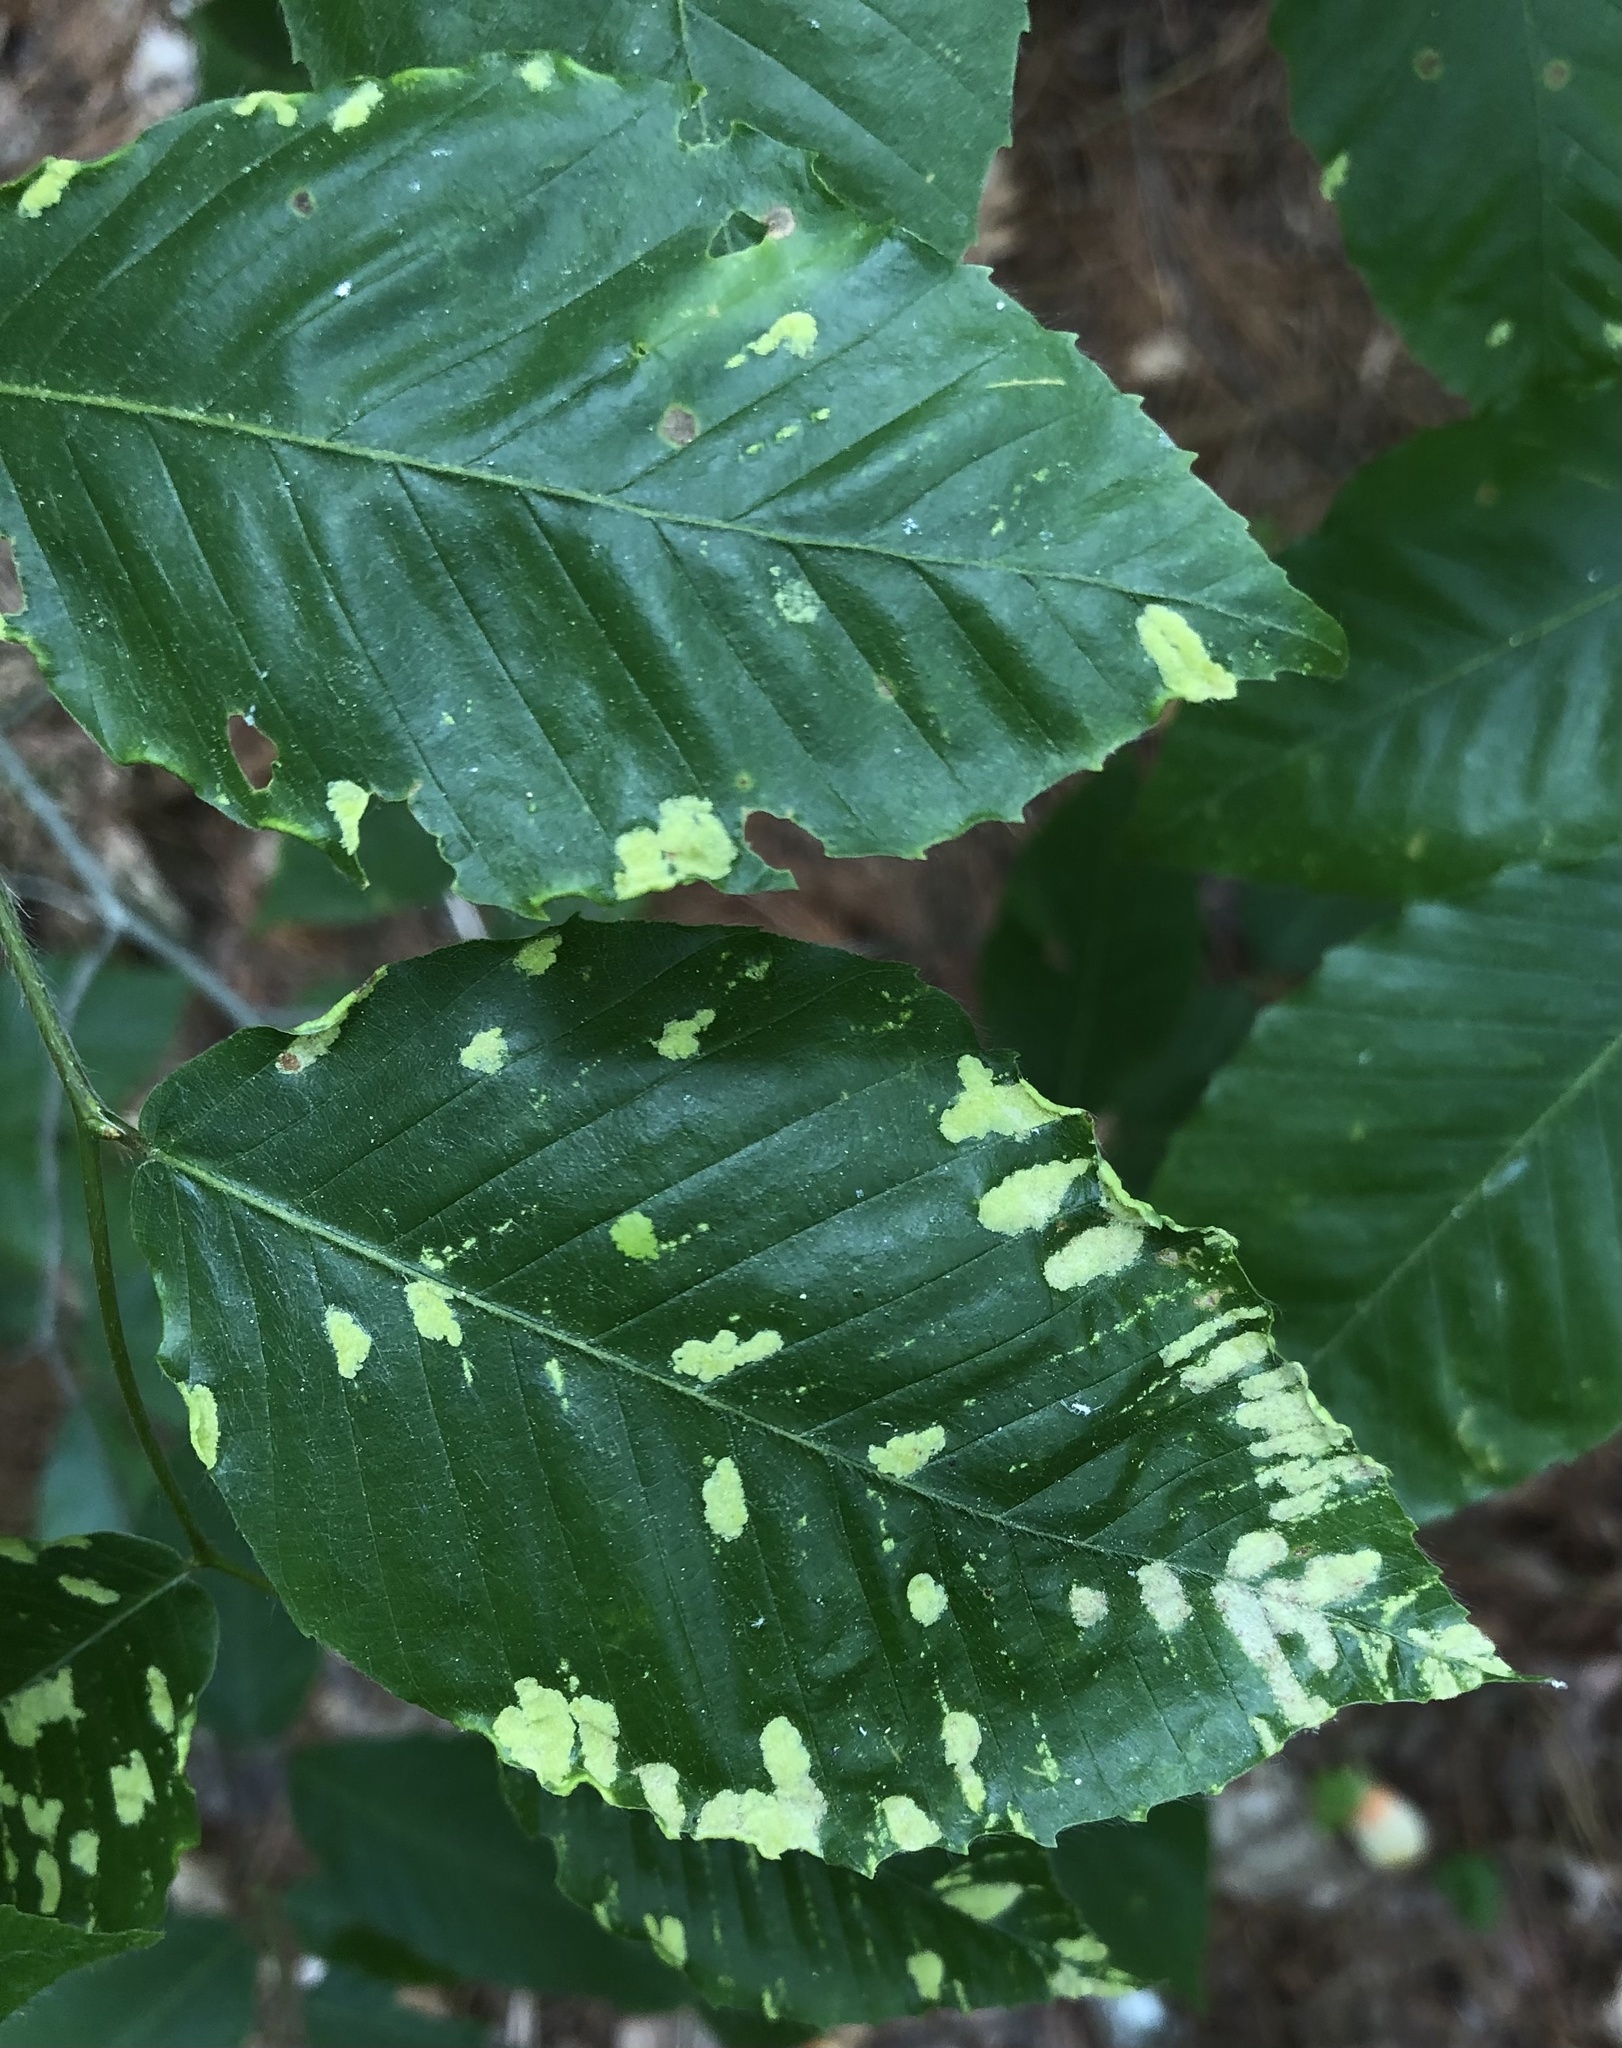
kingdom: Animalia
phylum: Arthropoda
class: Arachnida
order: Trombidiformes
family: Eriophyidae
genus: Acalitus
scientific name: Acalitus
